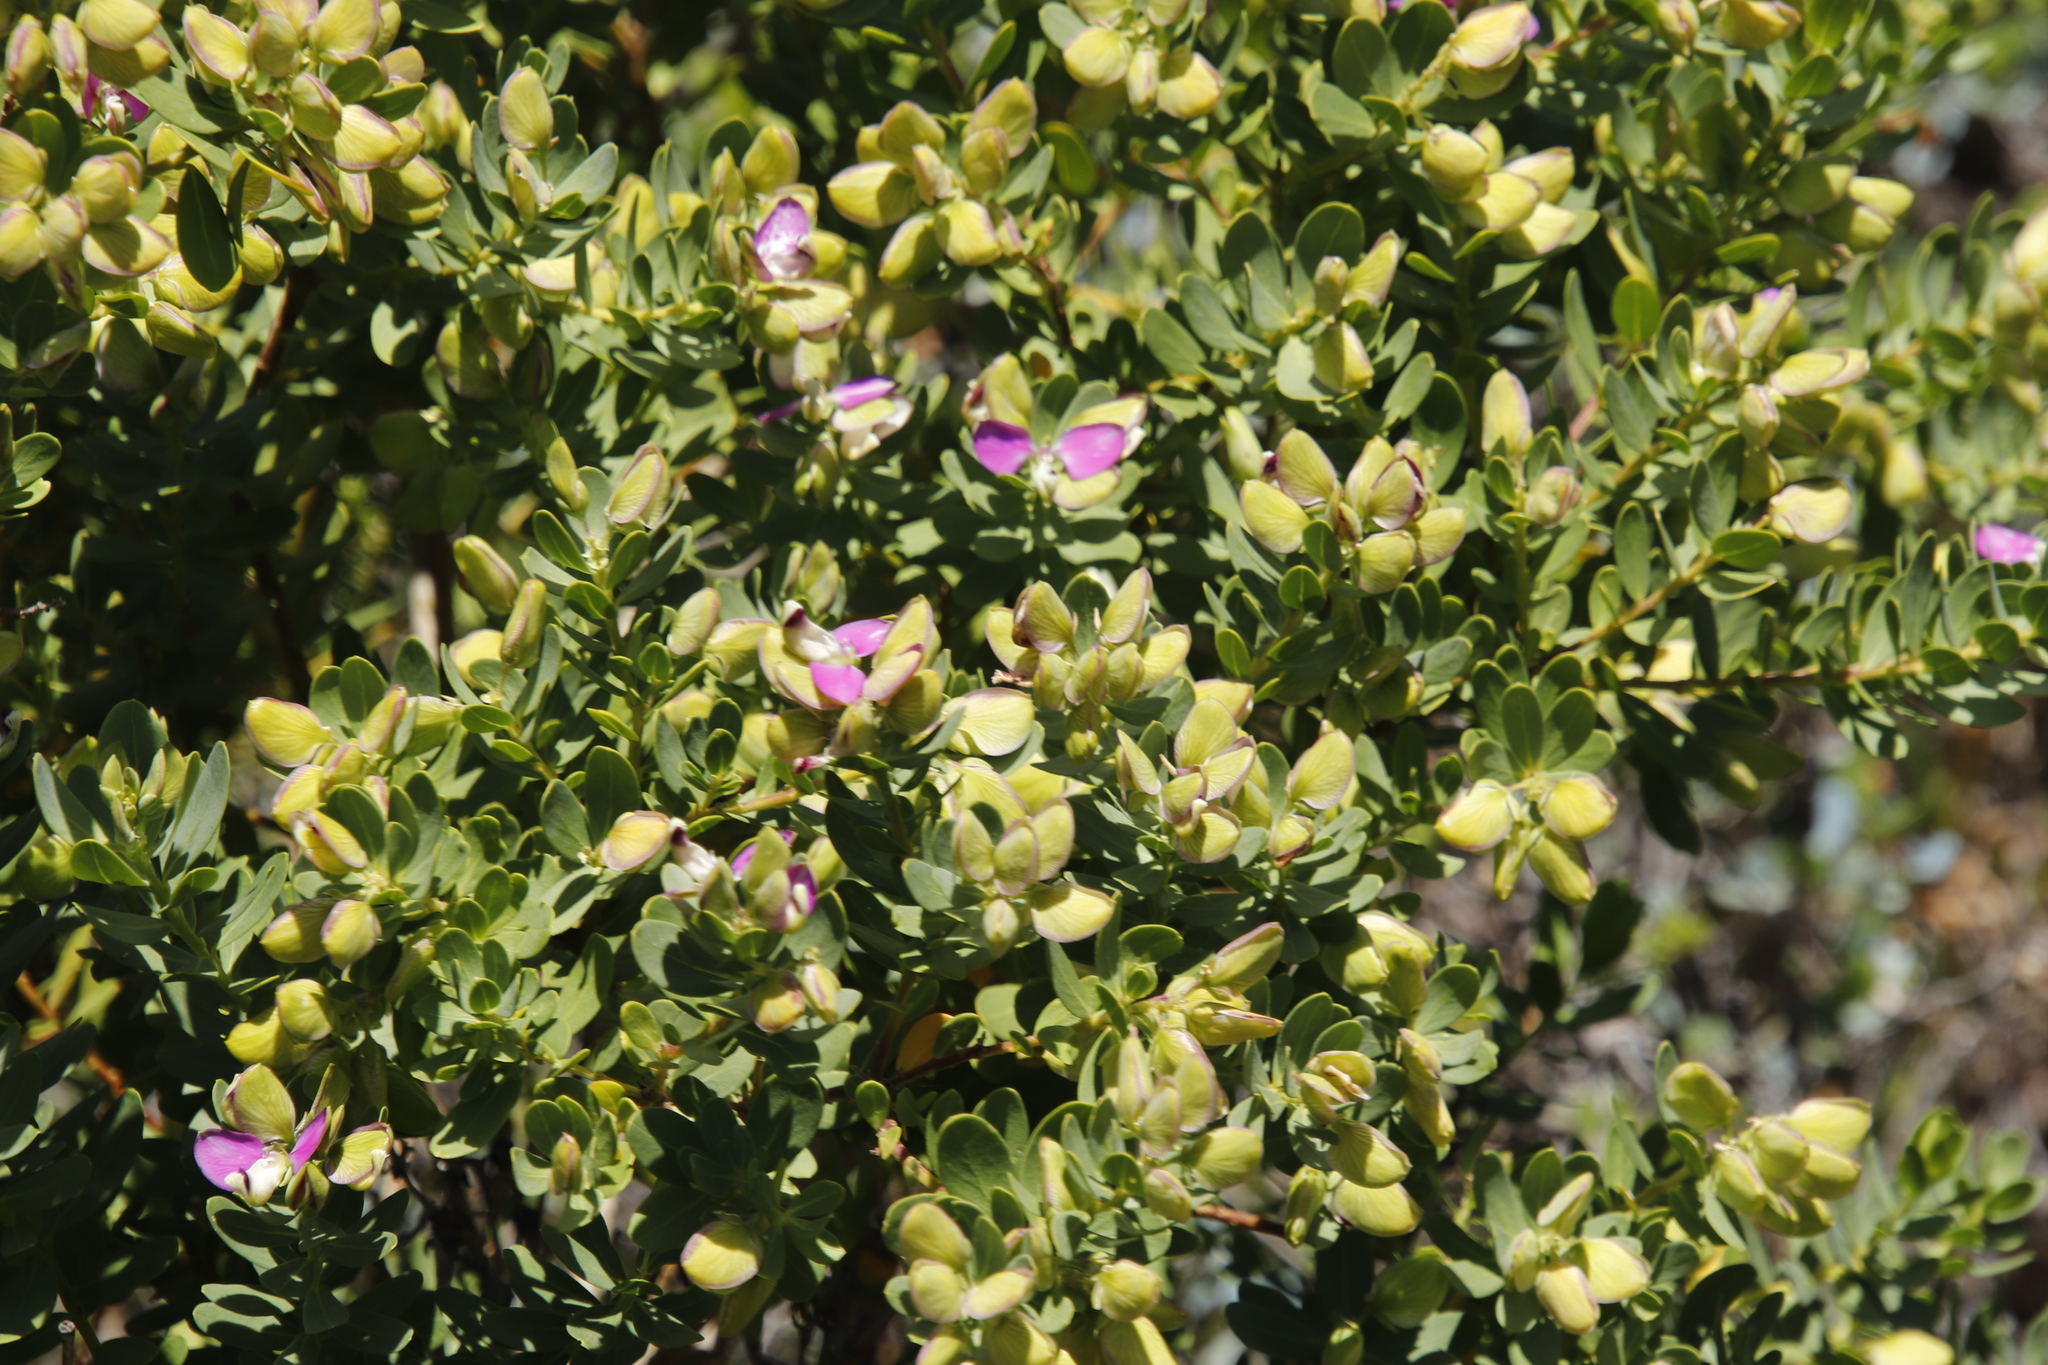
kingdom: Plantae
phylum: Tracheophyta
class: Magnoliopsida
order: Fabales
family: Polygalaceae
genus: Polygala
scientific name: Polygala myrtifolia
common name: Myrtle-leaf milkwort
